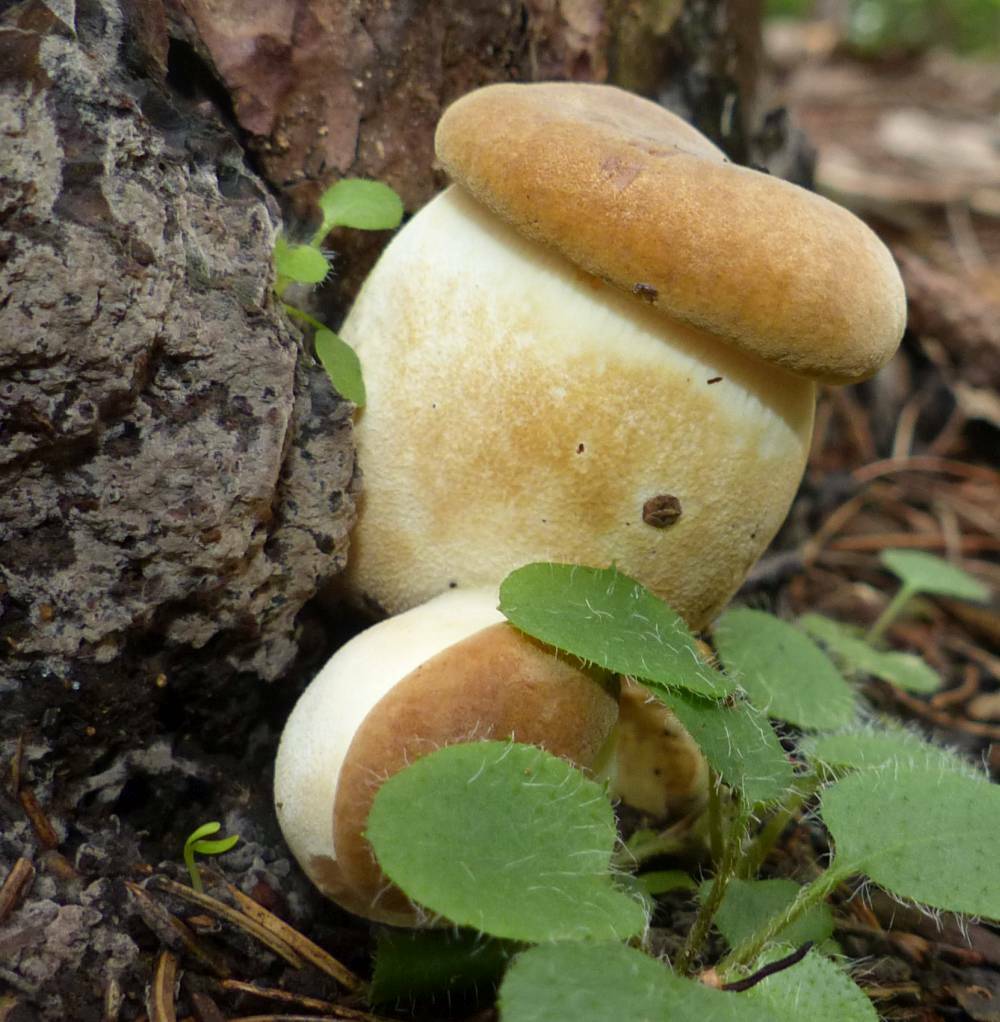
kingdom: Fungi
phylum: Basidiomycota
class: Agaricomycetes
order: Boletales
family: Tapinellaceae
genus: Tapinella
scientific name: Tapinella atrotomentosa
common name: Velvet rollrim
